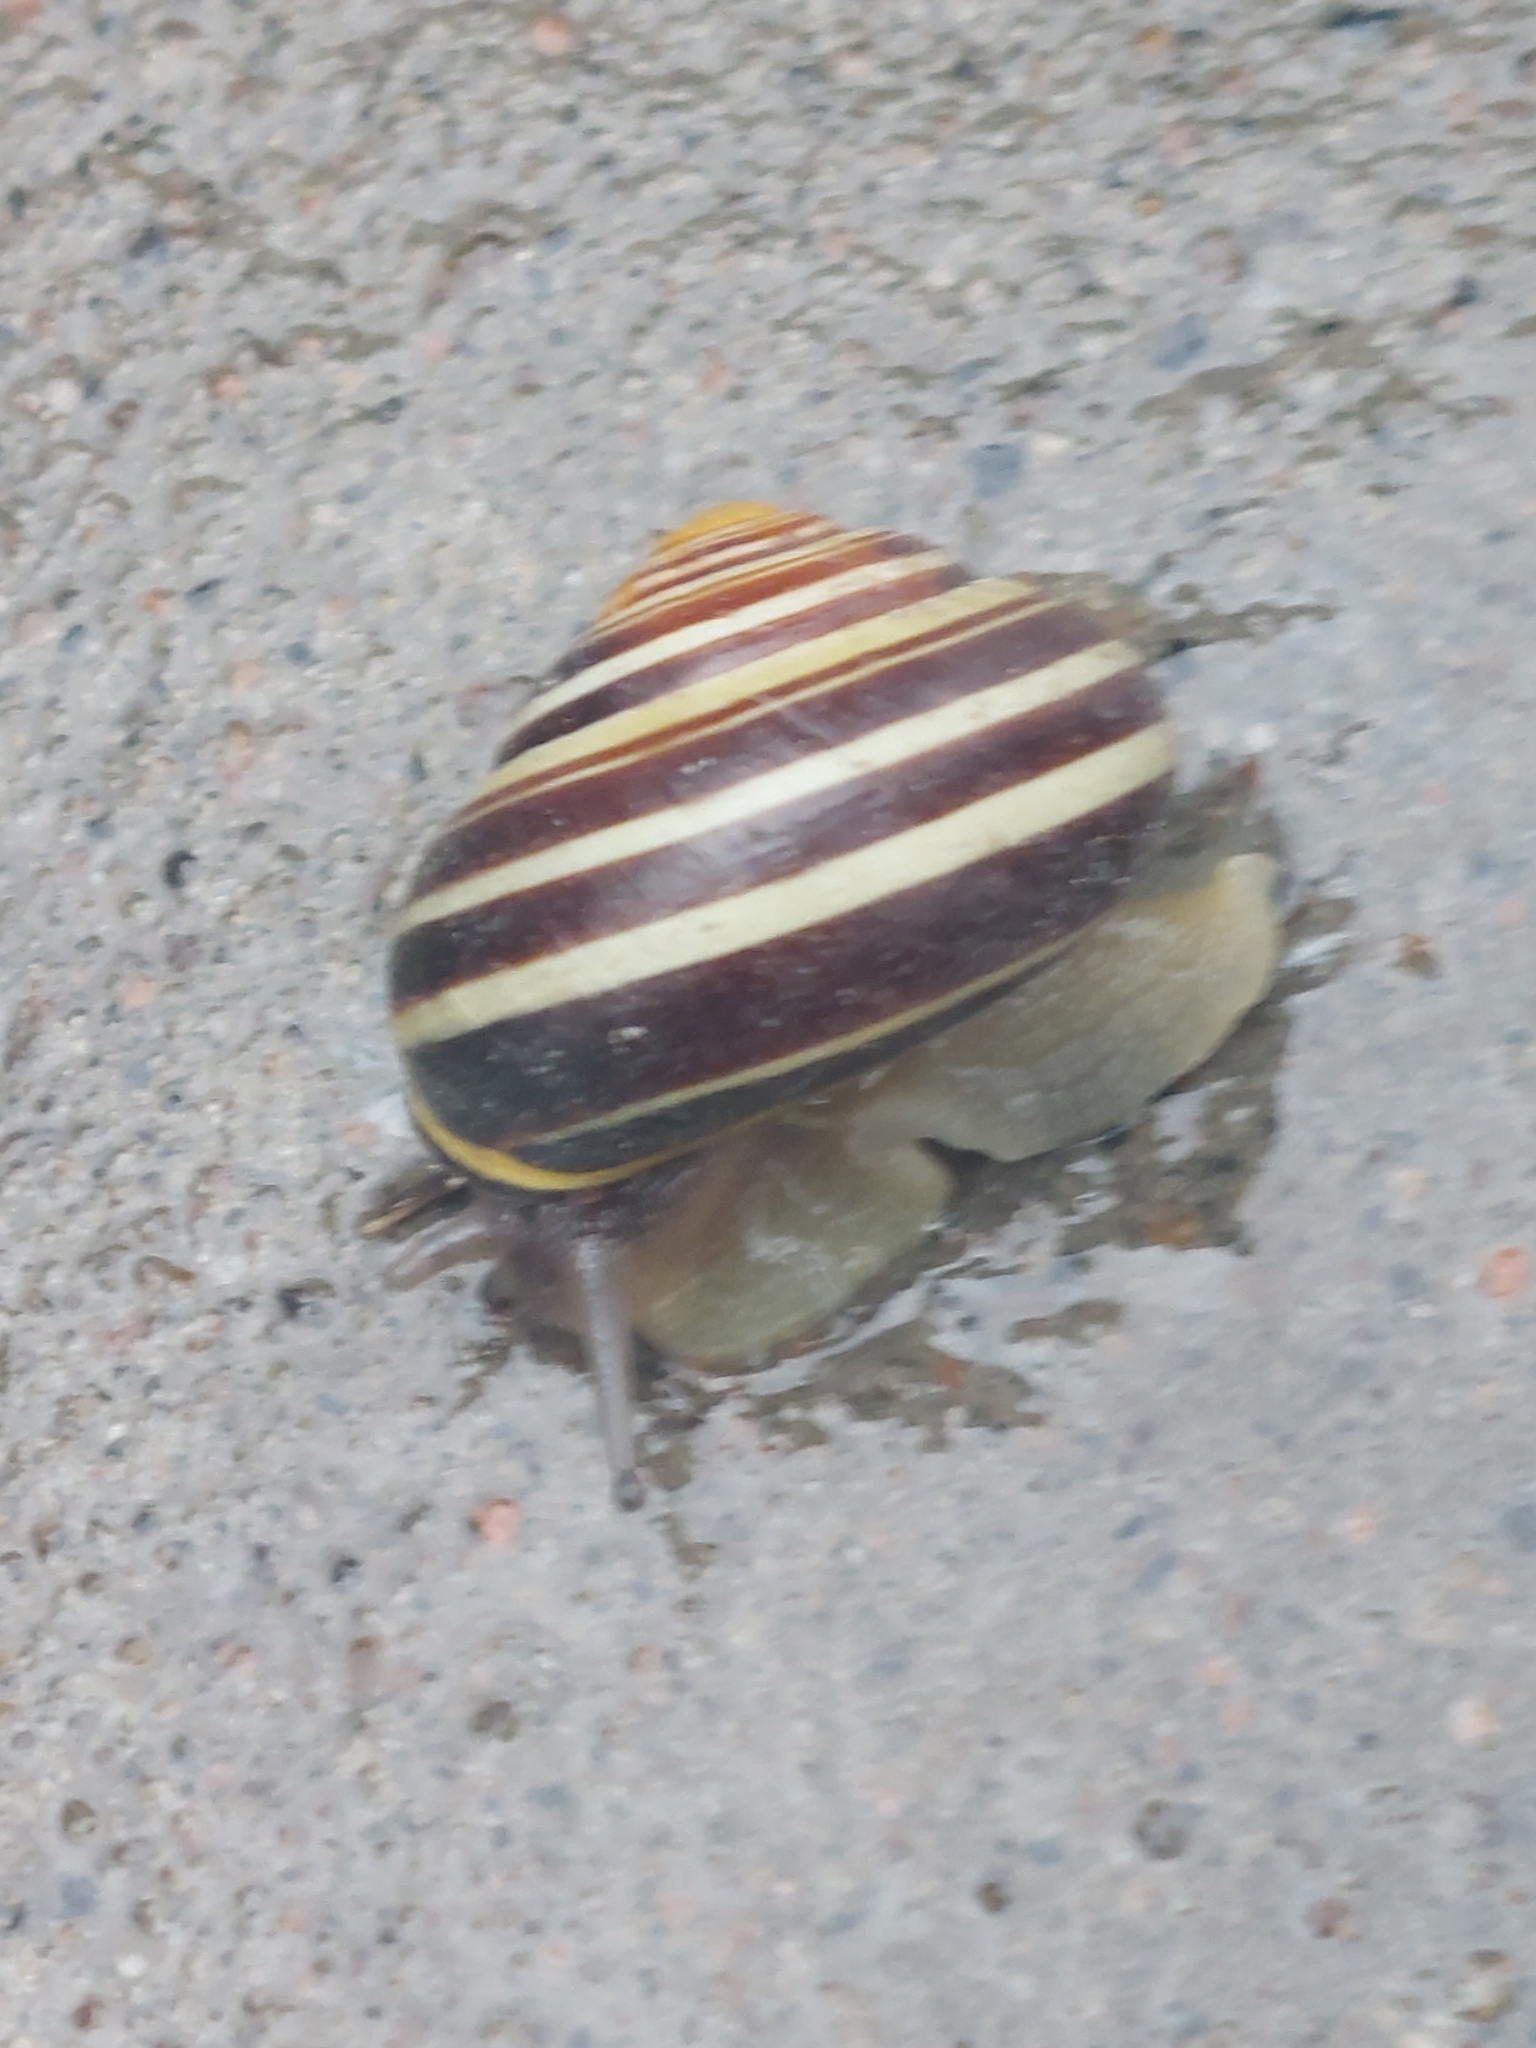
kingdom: Animalia
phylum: Mollusca
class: Gastropoda
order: Stylommatophora
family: Helicidae
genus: Cepaea
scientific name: Cepaea nemoralis
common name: Grovesnail
